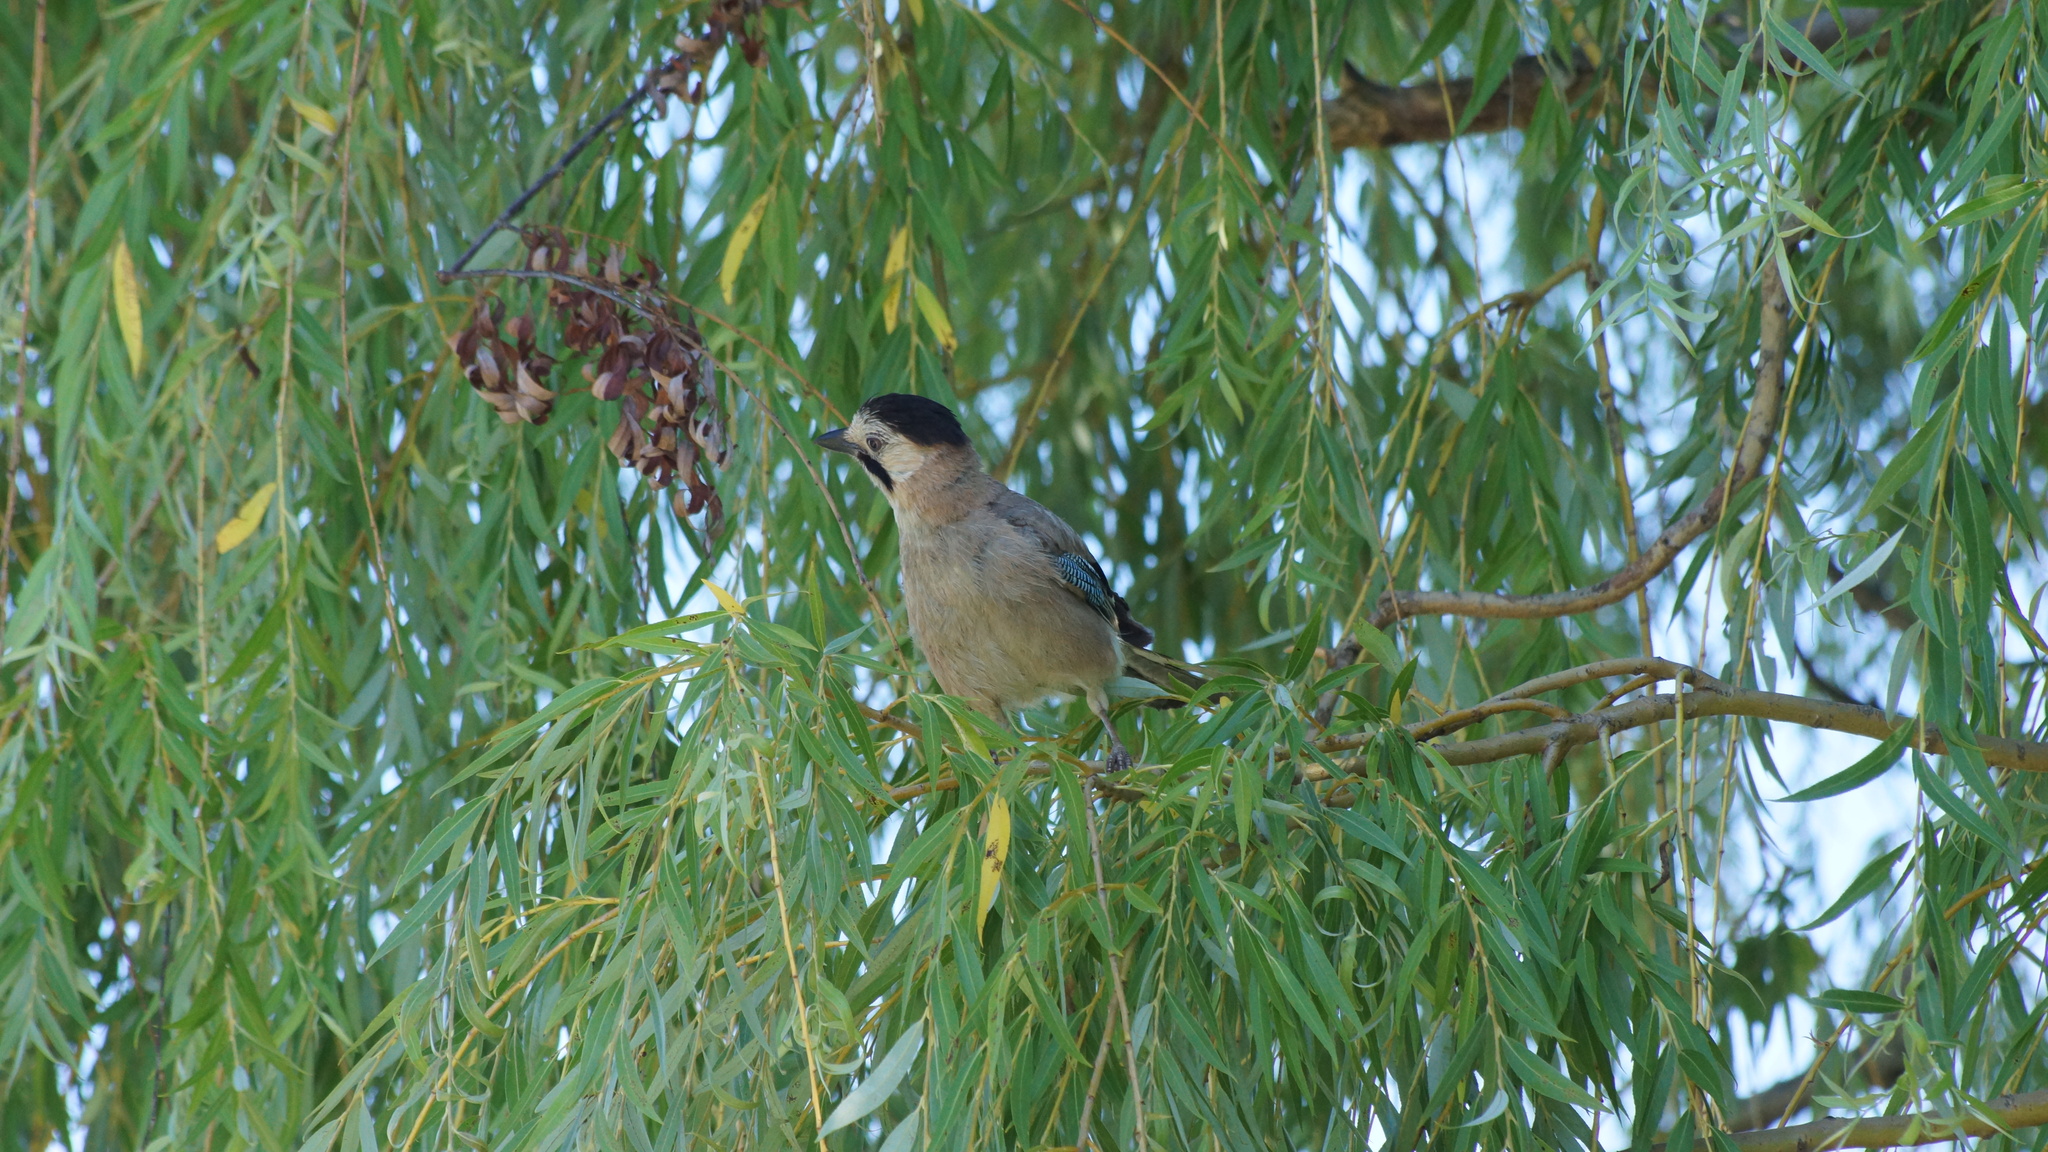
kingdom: Animalia
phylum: Chordata
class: Aves
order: Passeriformes
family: Corvidae
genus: Garrulus
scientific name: Garrulus glandarius
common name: Eurasian jay
